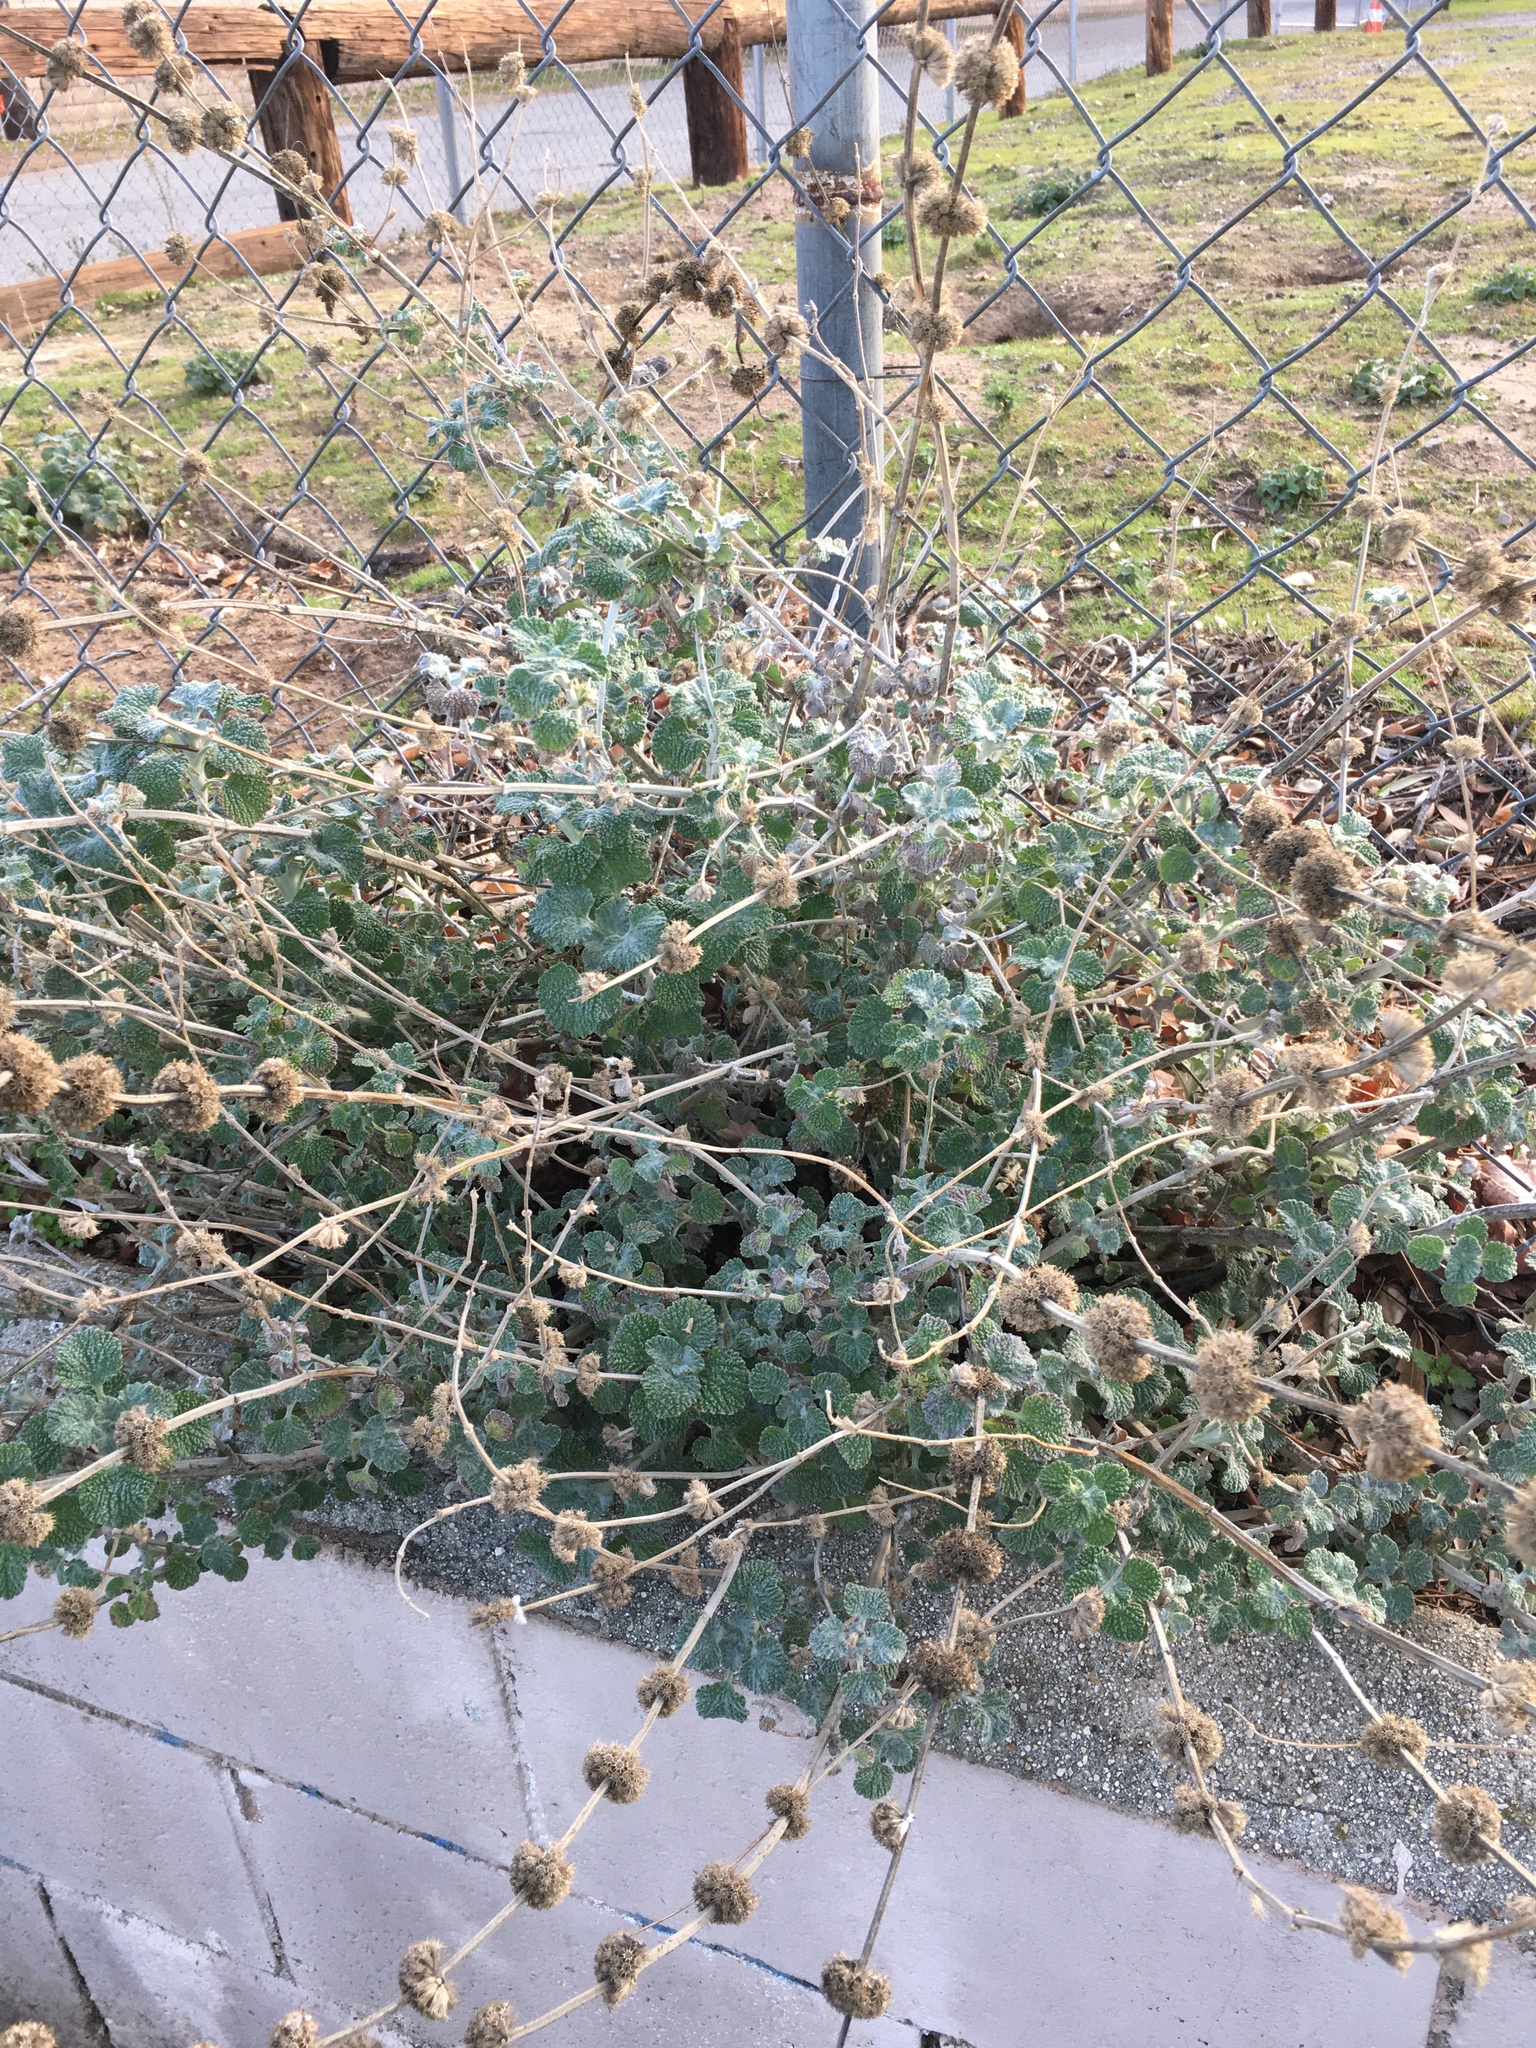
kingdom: Plantae
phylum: Tracheophyta
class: Magnoliopsida
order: Lamiales
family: Lamiaceae
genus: Marrubium
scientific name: Marrubium vulgare
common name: Horehound
